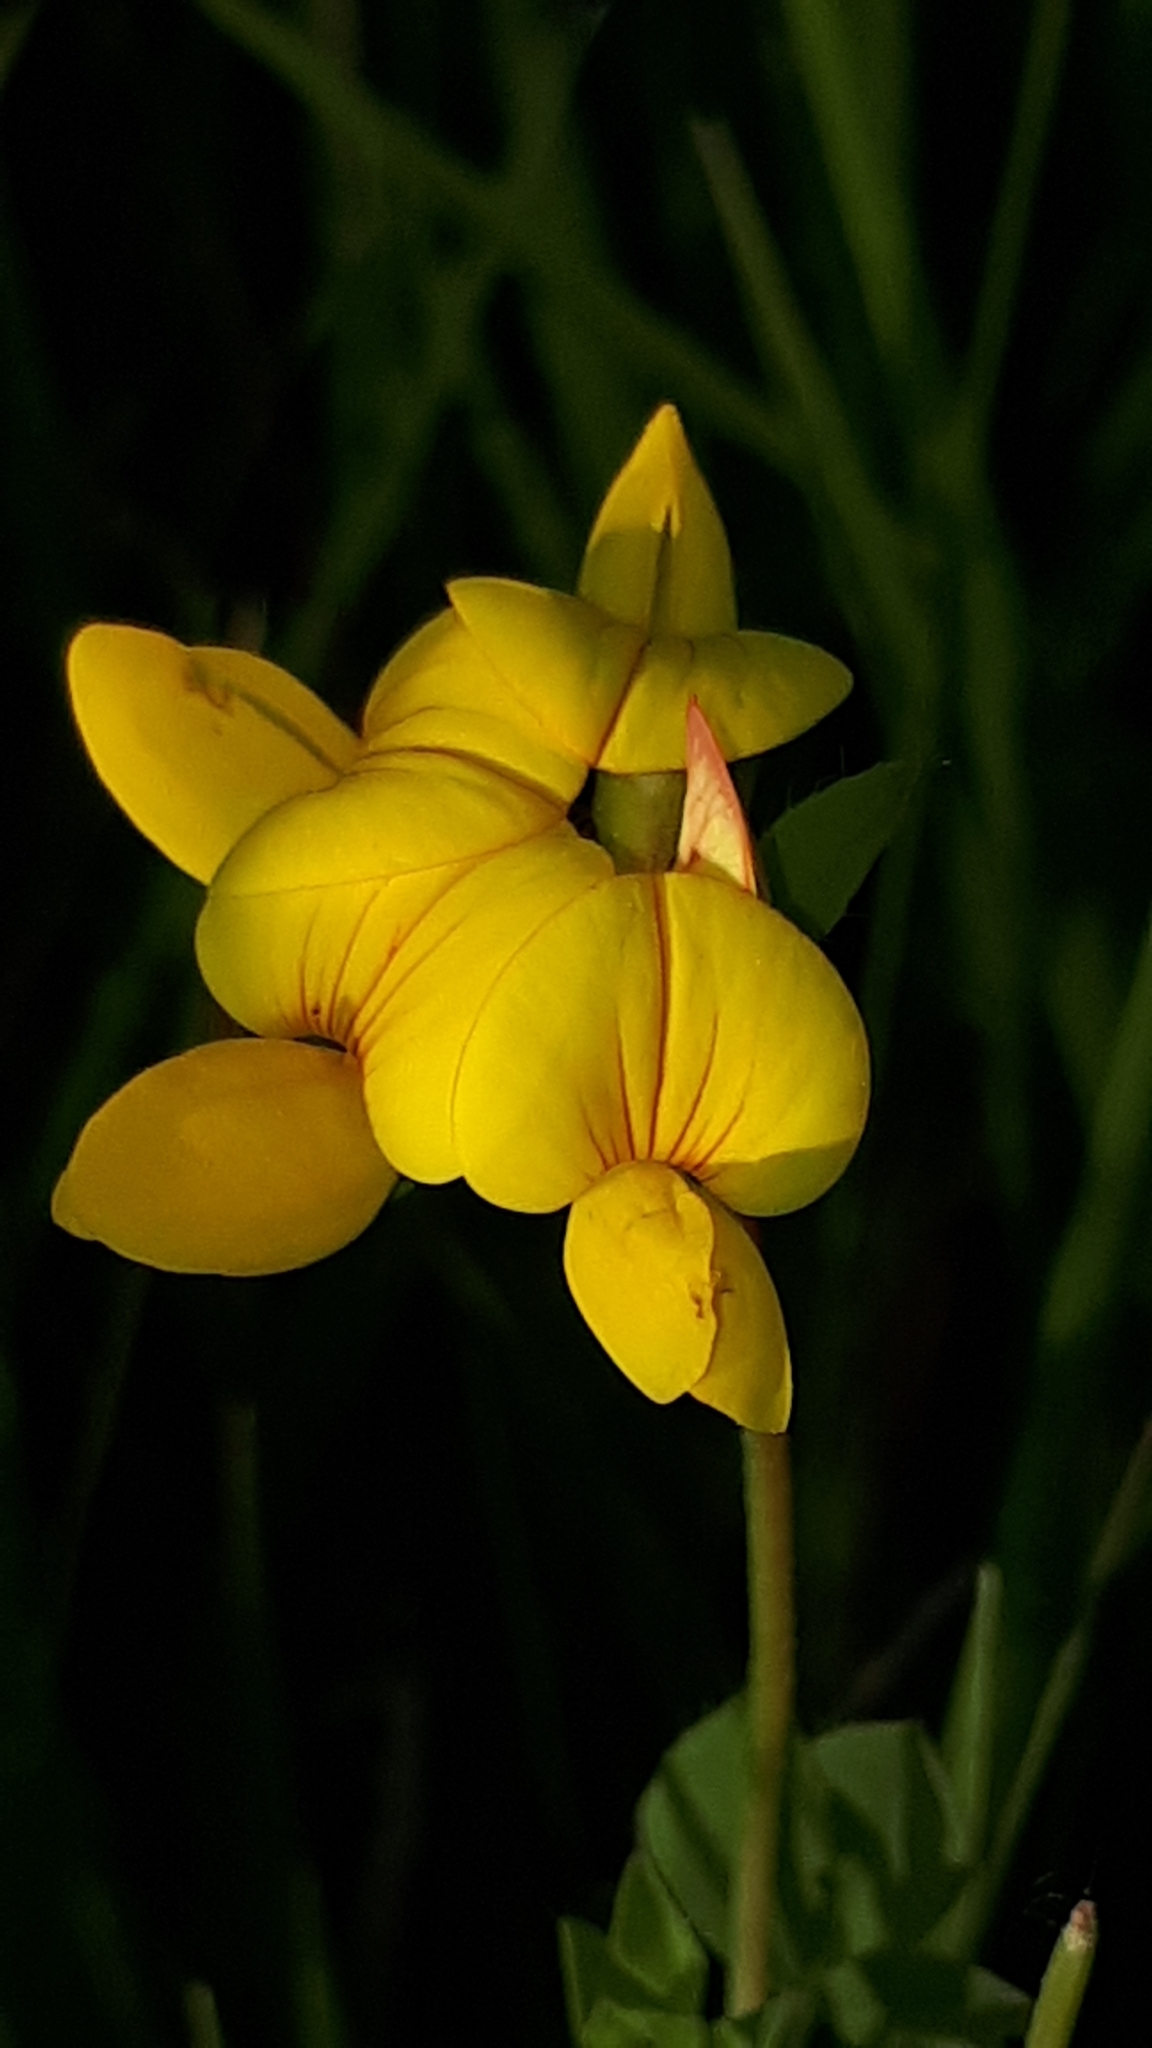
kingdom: Plantae
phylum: Tracheophyta
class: Magnoliopsida
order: Fabales
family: Fabaceae
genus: Lotus
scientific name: Lotus corniculatus
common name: Common bird's-foot-trefoil
